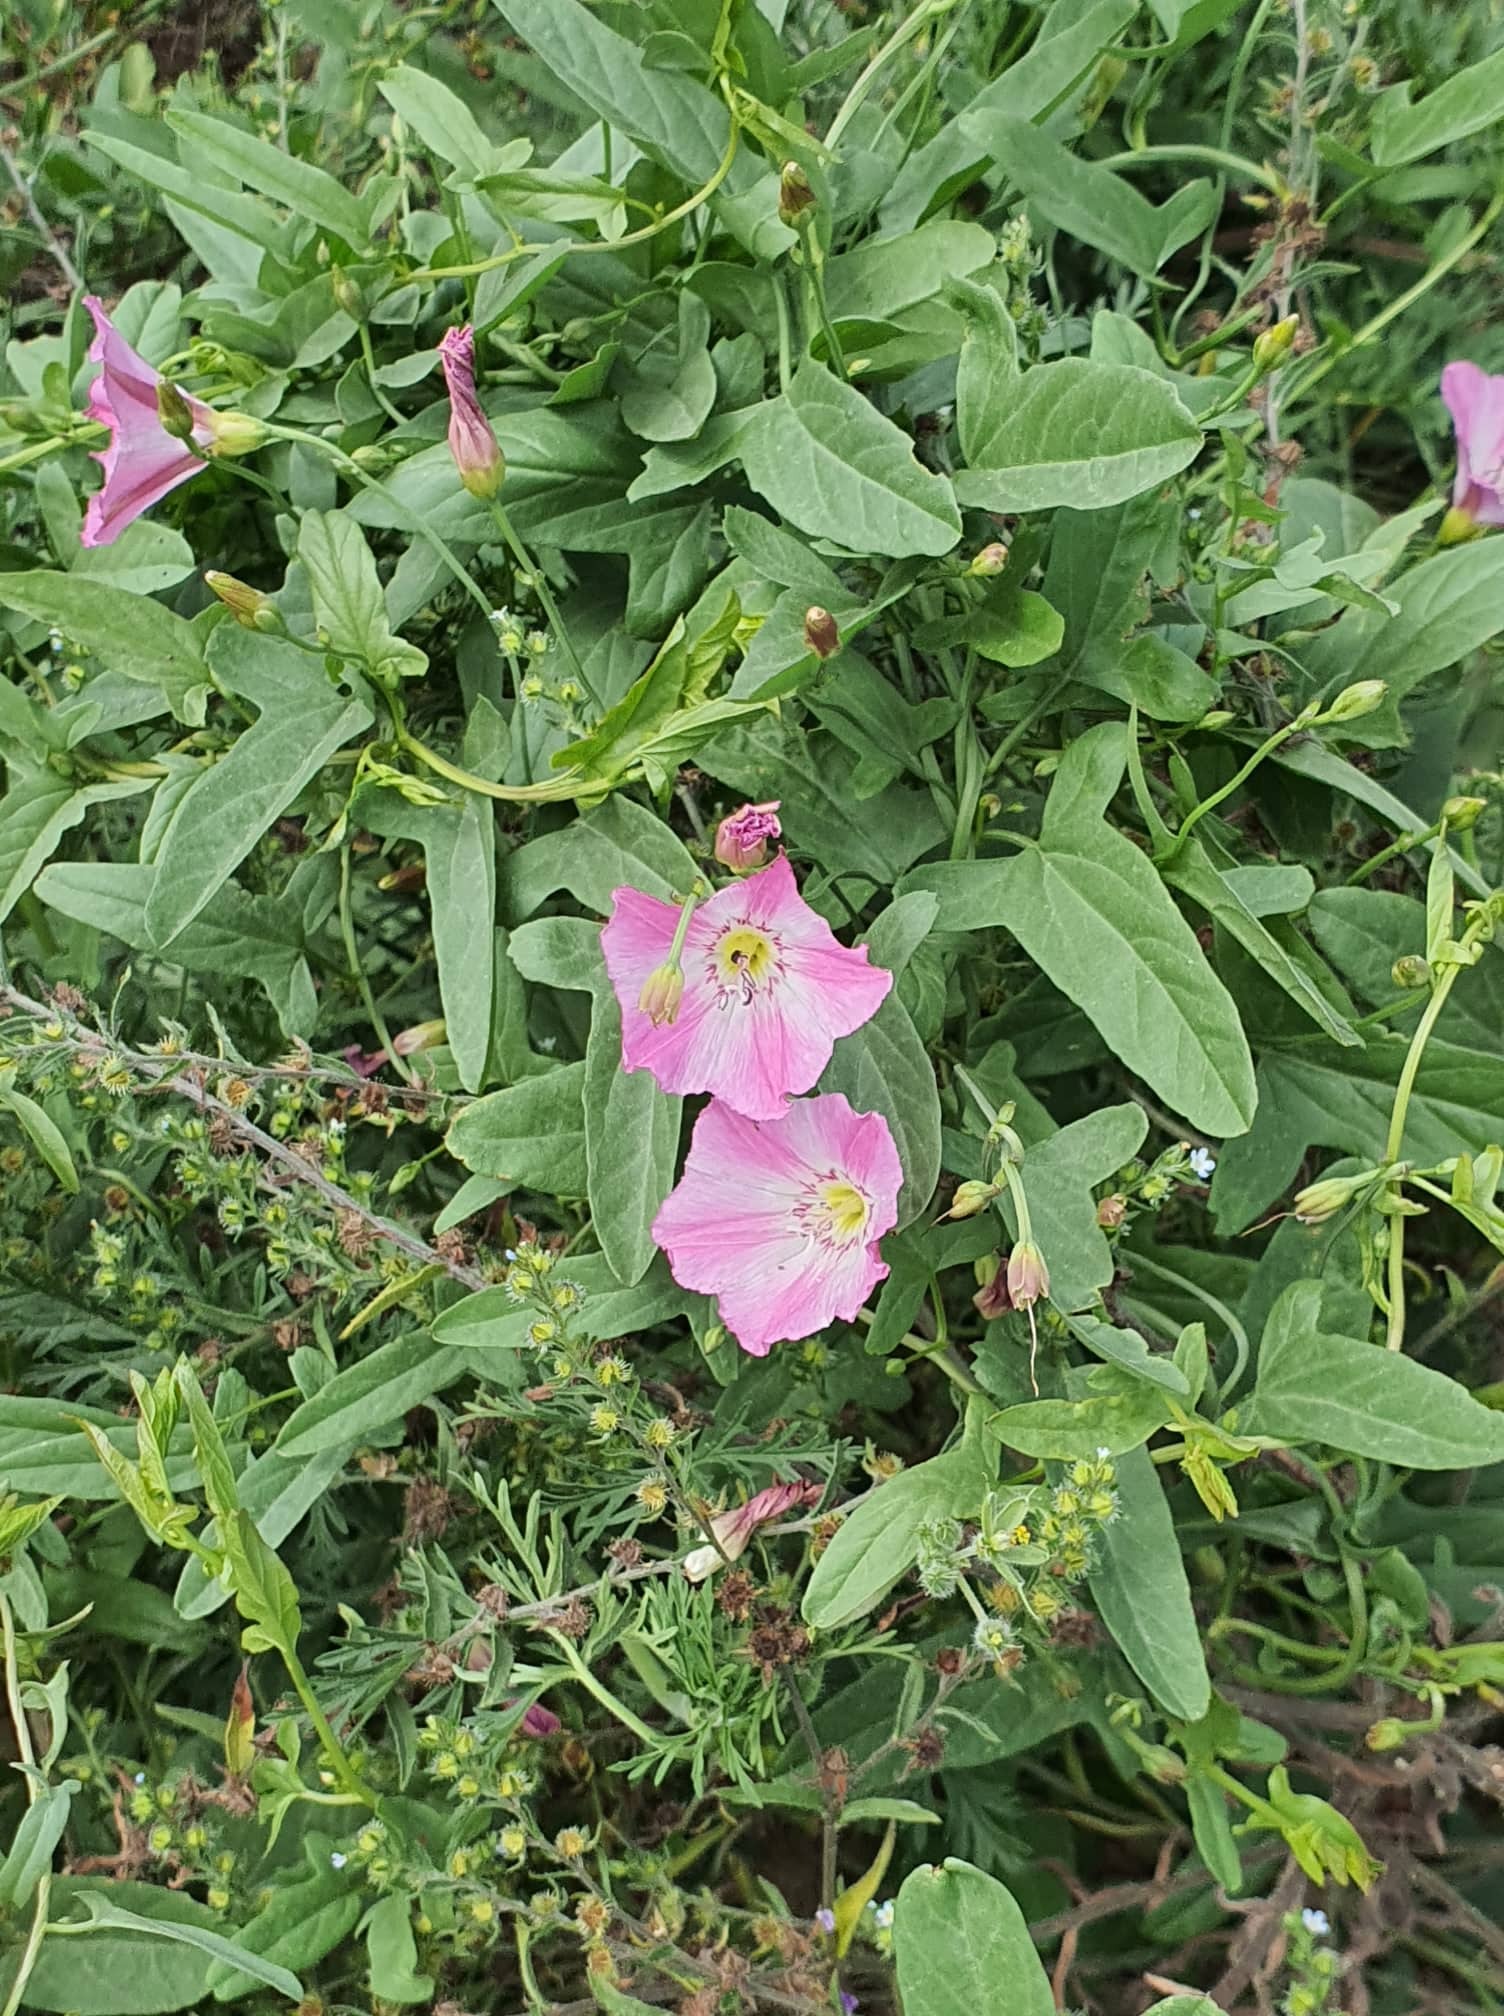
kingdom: Plantae
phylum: Tracheophyta
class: Magnoliopsida
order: Solanales
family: Convolvulaceae
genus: Convolvulus
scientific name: Convolvulus arvensis
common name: Field bindweed
